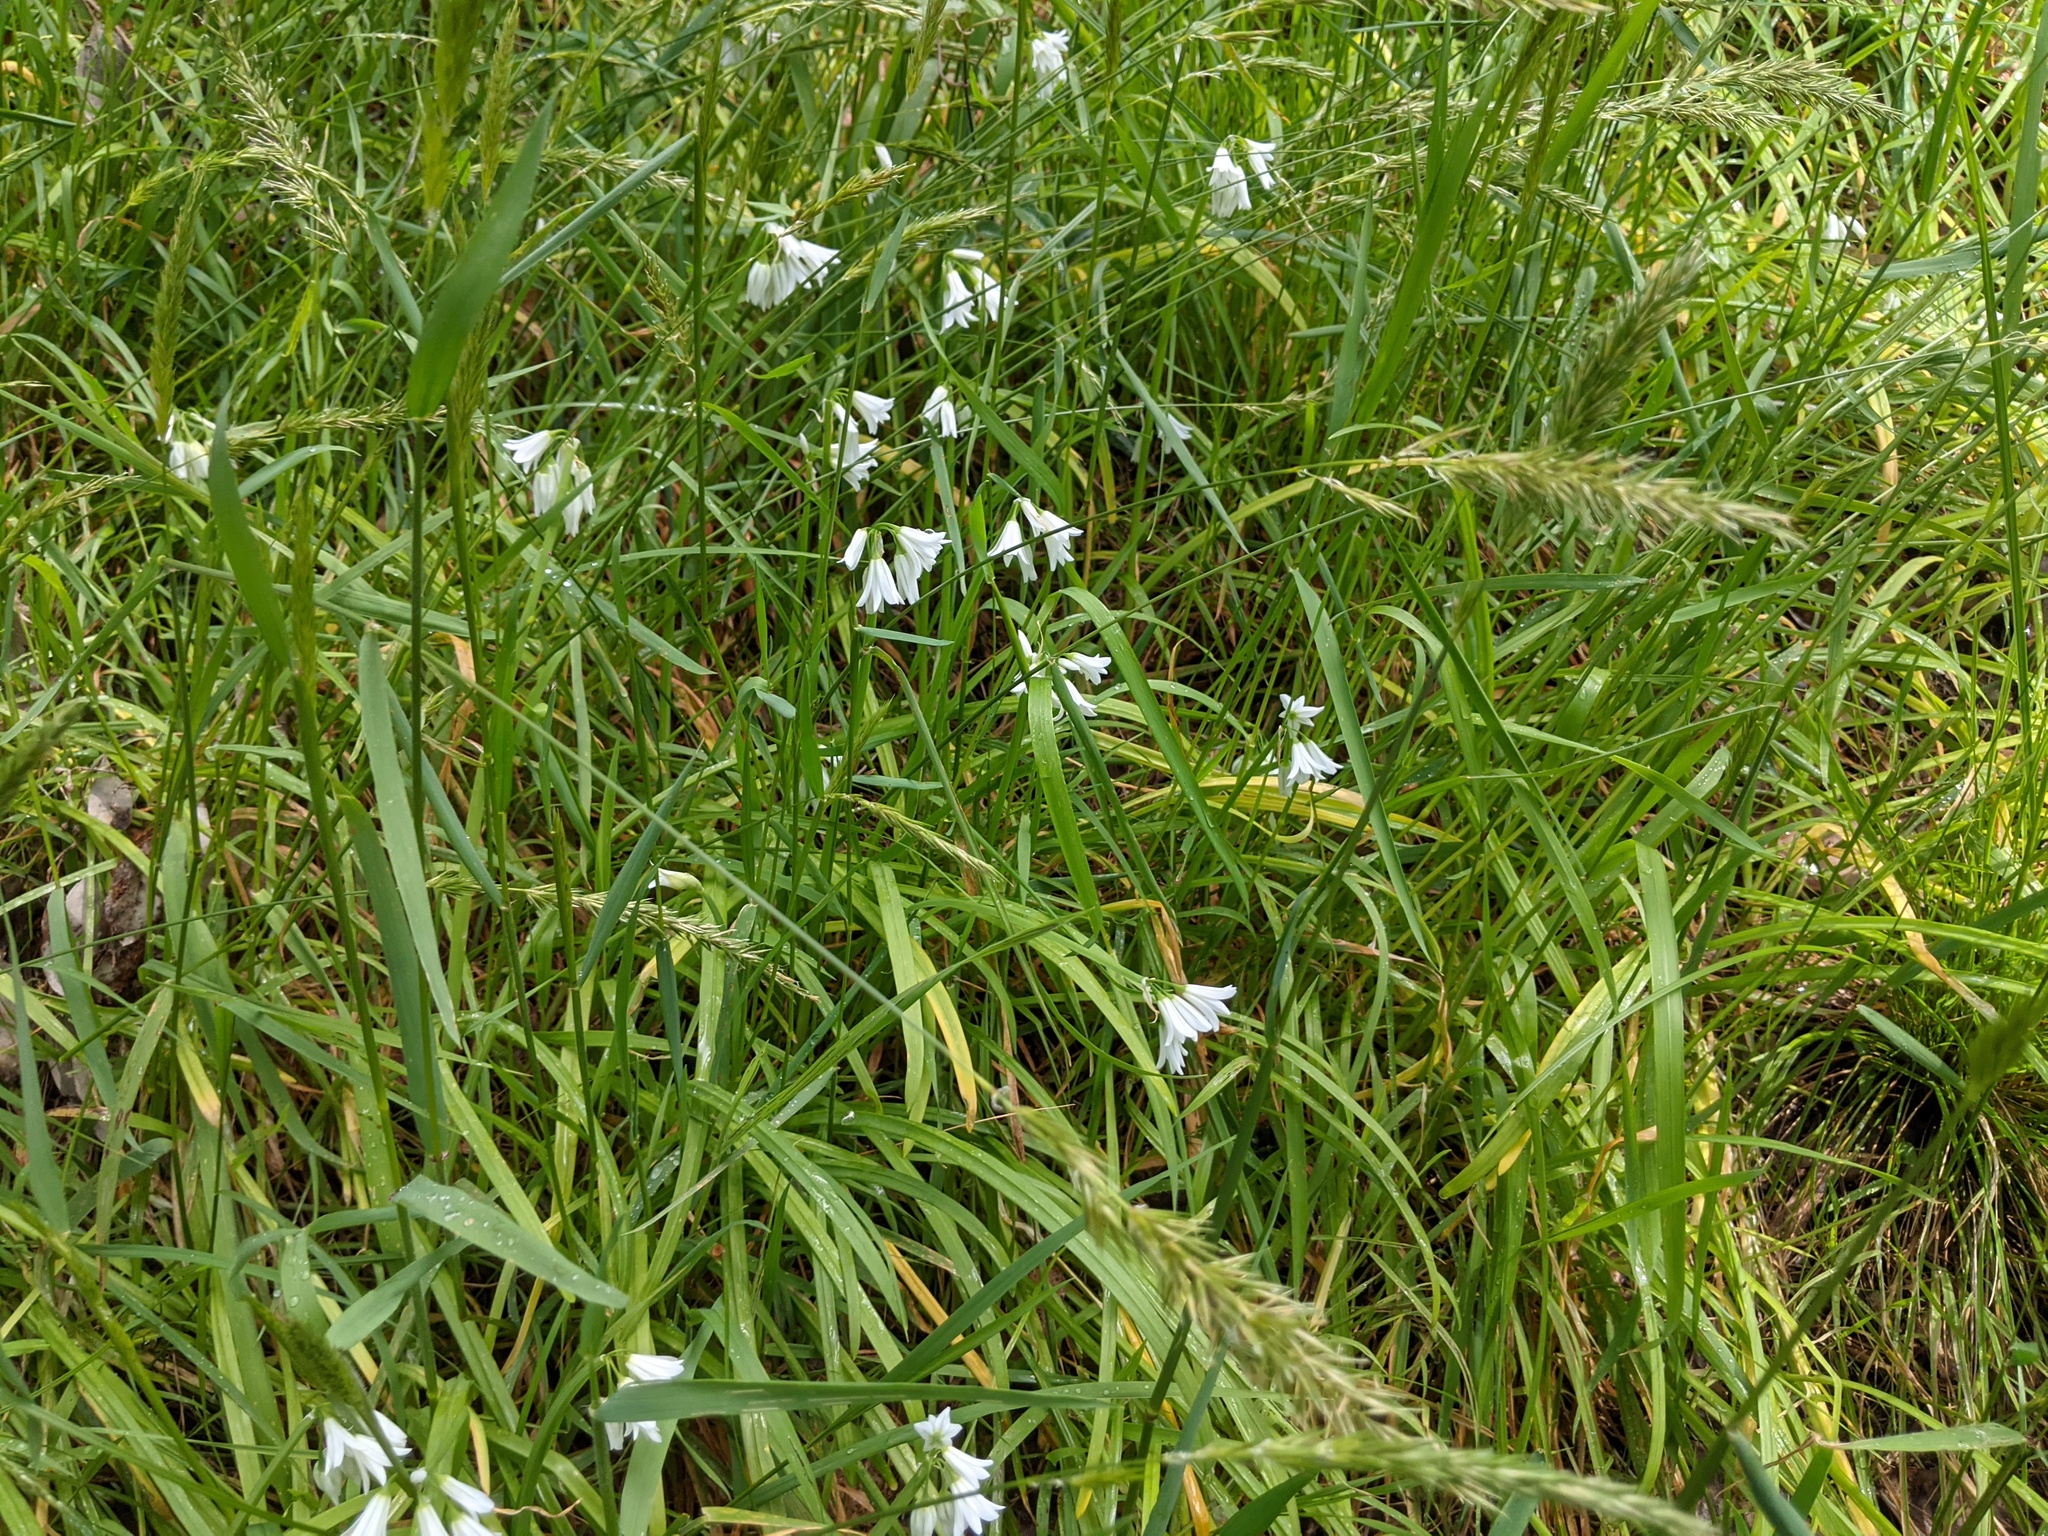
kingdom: Plantae
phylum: Tracheophyta
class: Liliopsida
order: Poales
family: Poaceae
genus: Anthoxanthum
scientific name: Anthoxanthum odoratum
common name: Sweet vernalgrass
